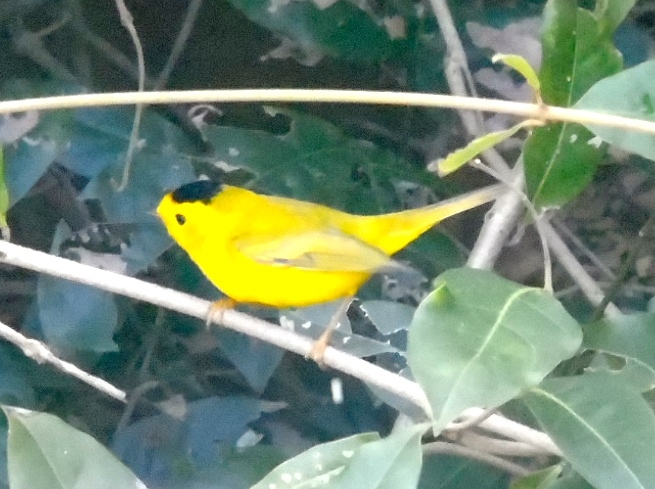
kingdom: Animalia
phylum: Chordata
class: Aves
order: Passeriformes
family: Parulidae
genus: Cardellina
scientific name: Cardellina pusilla
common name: Wilson's warbler
